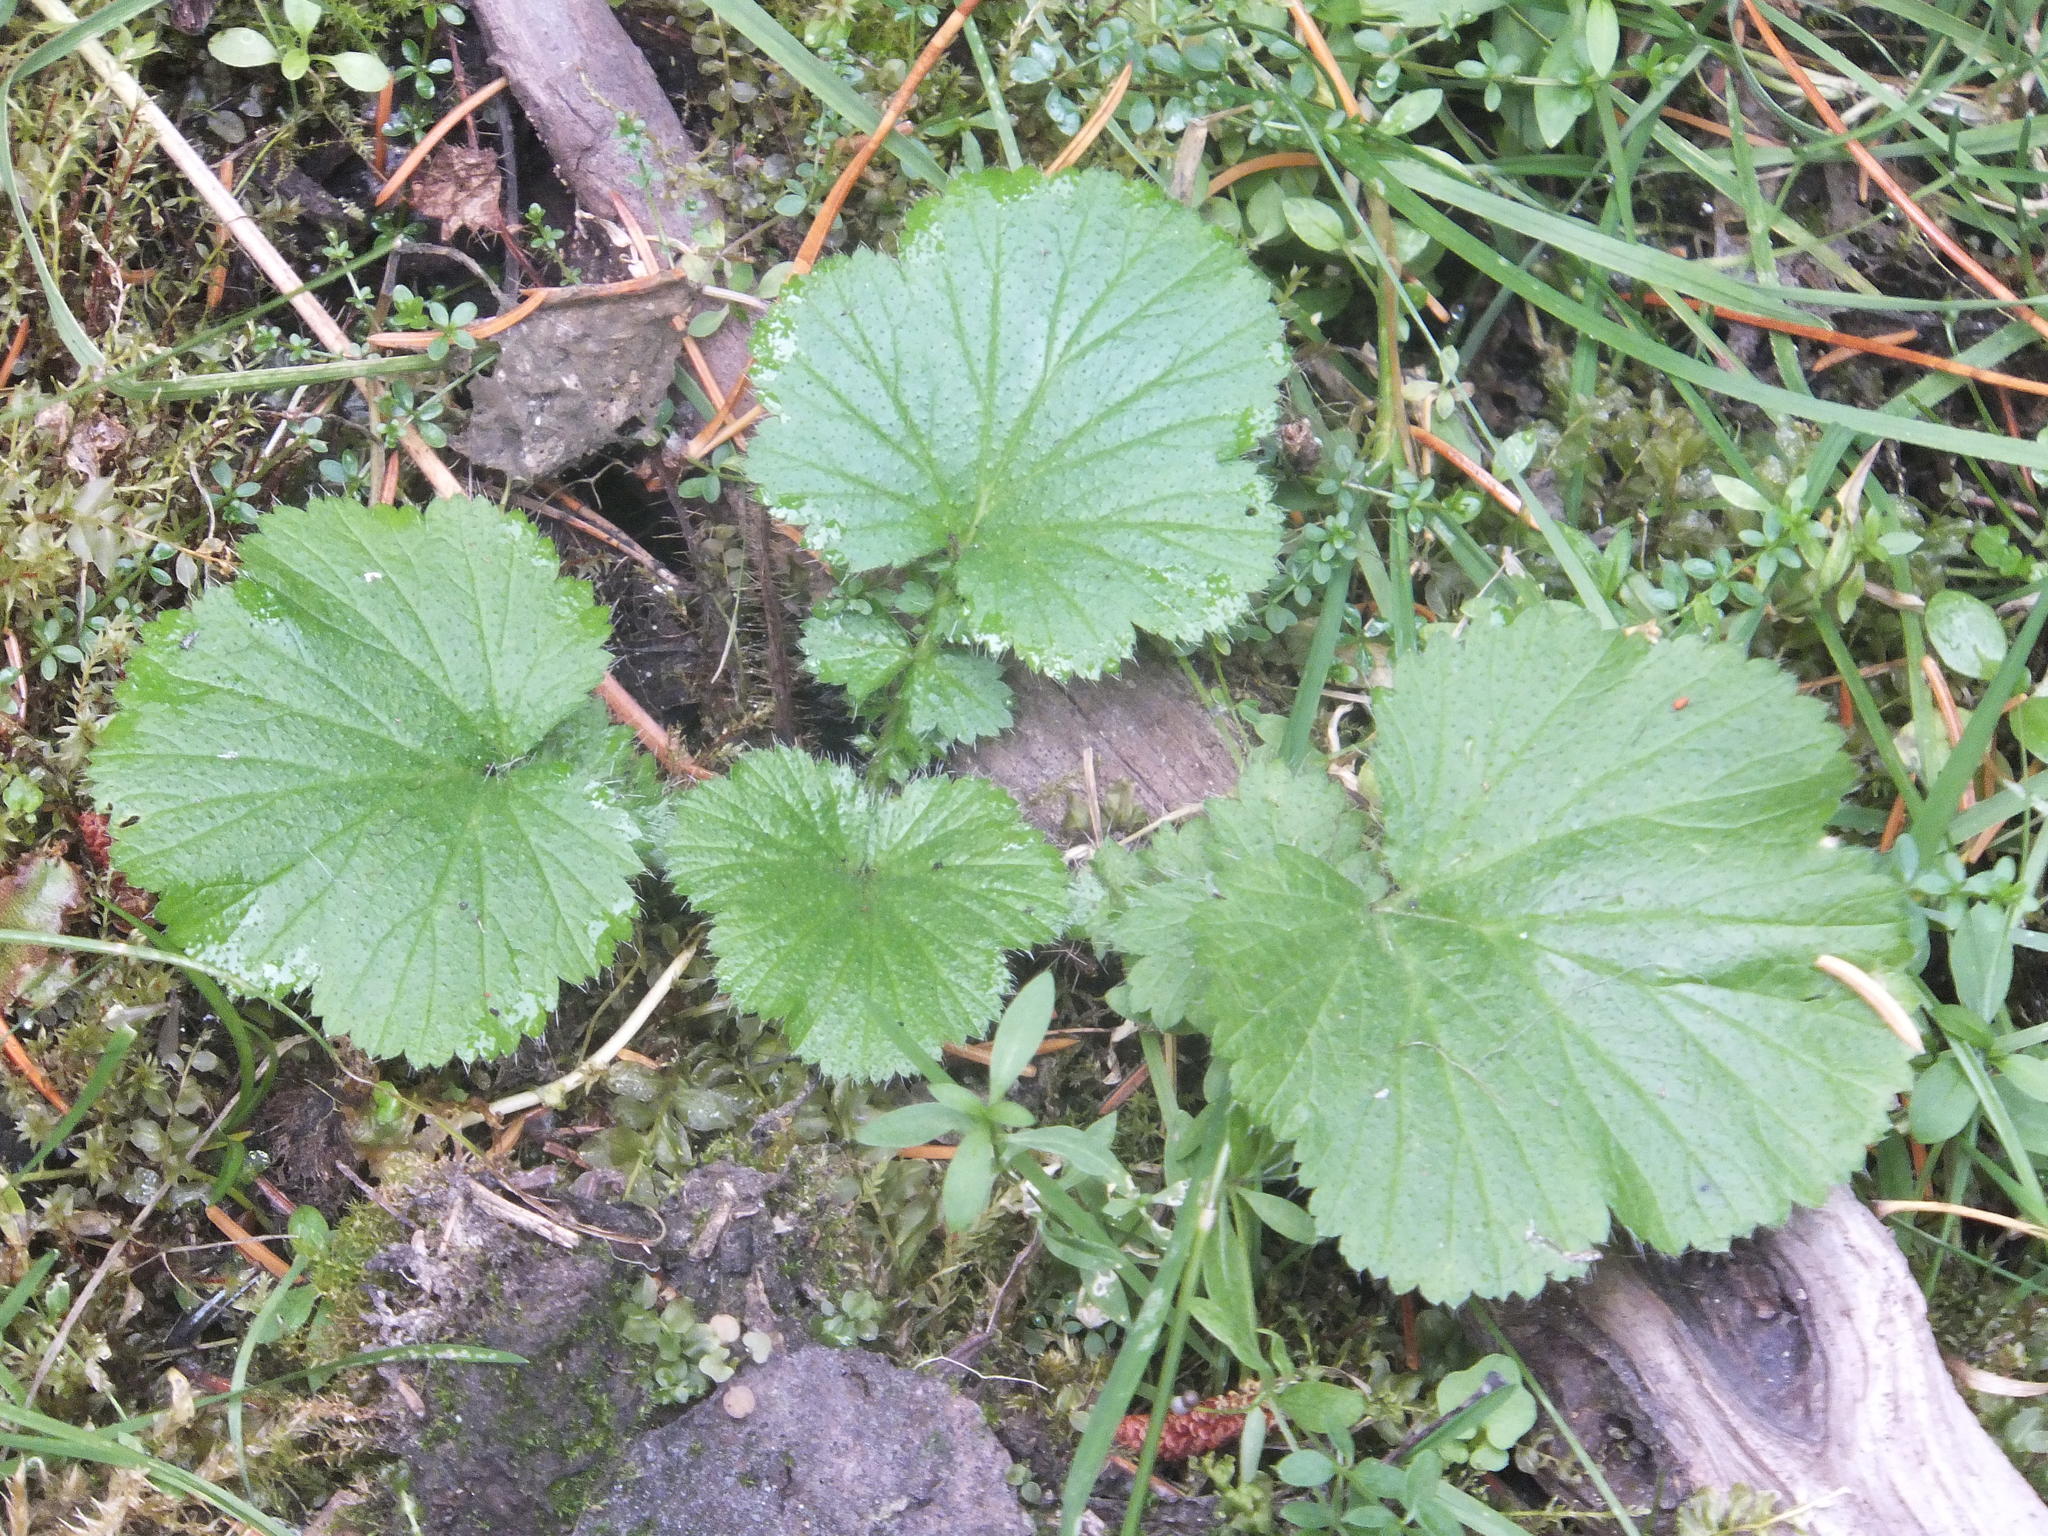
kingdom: Plantae
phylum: Tracheophyta
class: Magnoliopsida
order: Rosales
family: Rosaceae
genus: Geum
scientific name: Geum macrophyllum
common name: Large-leaved avens
